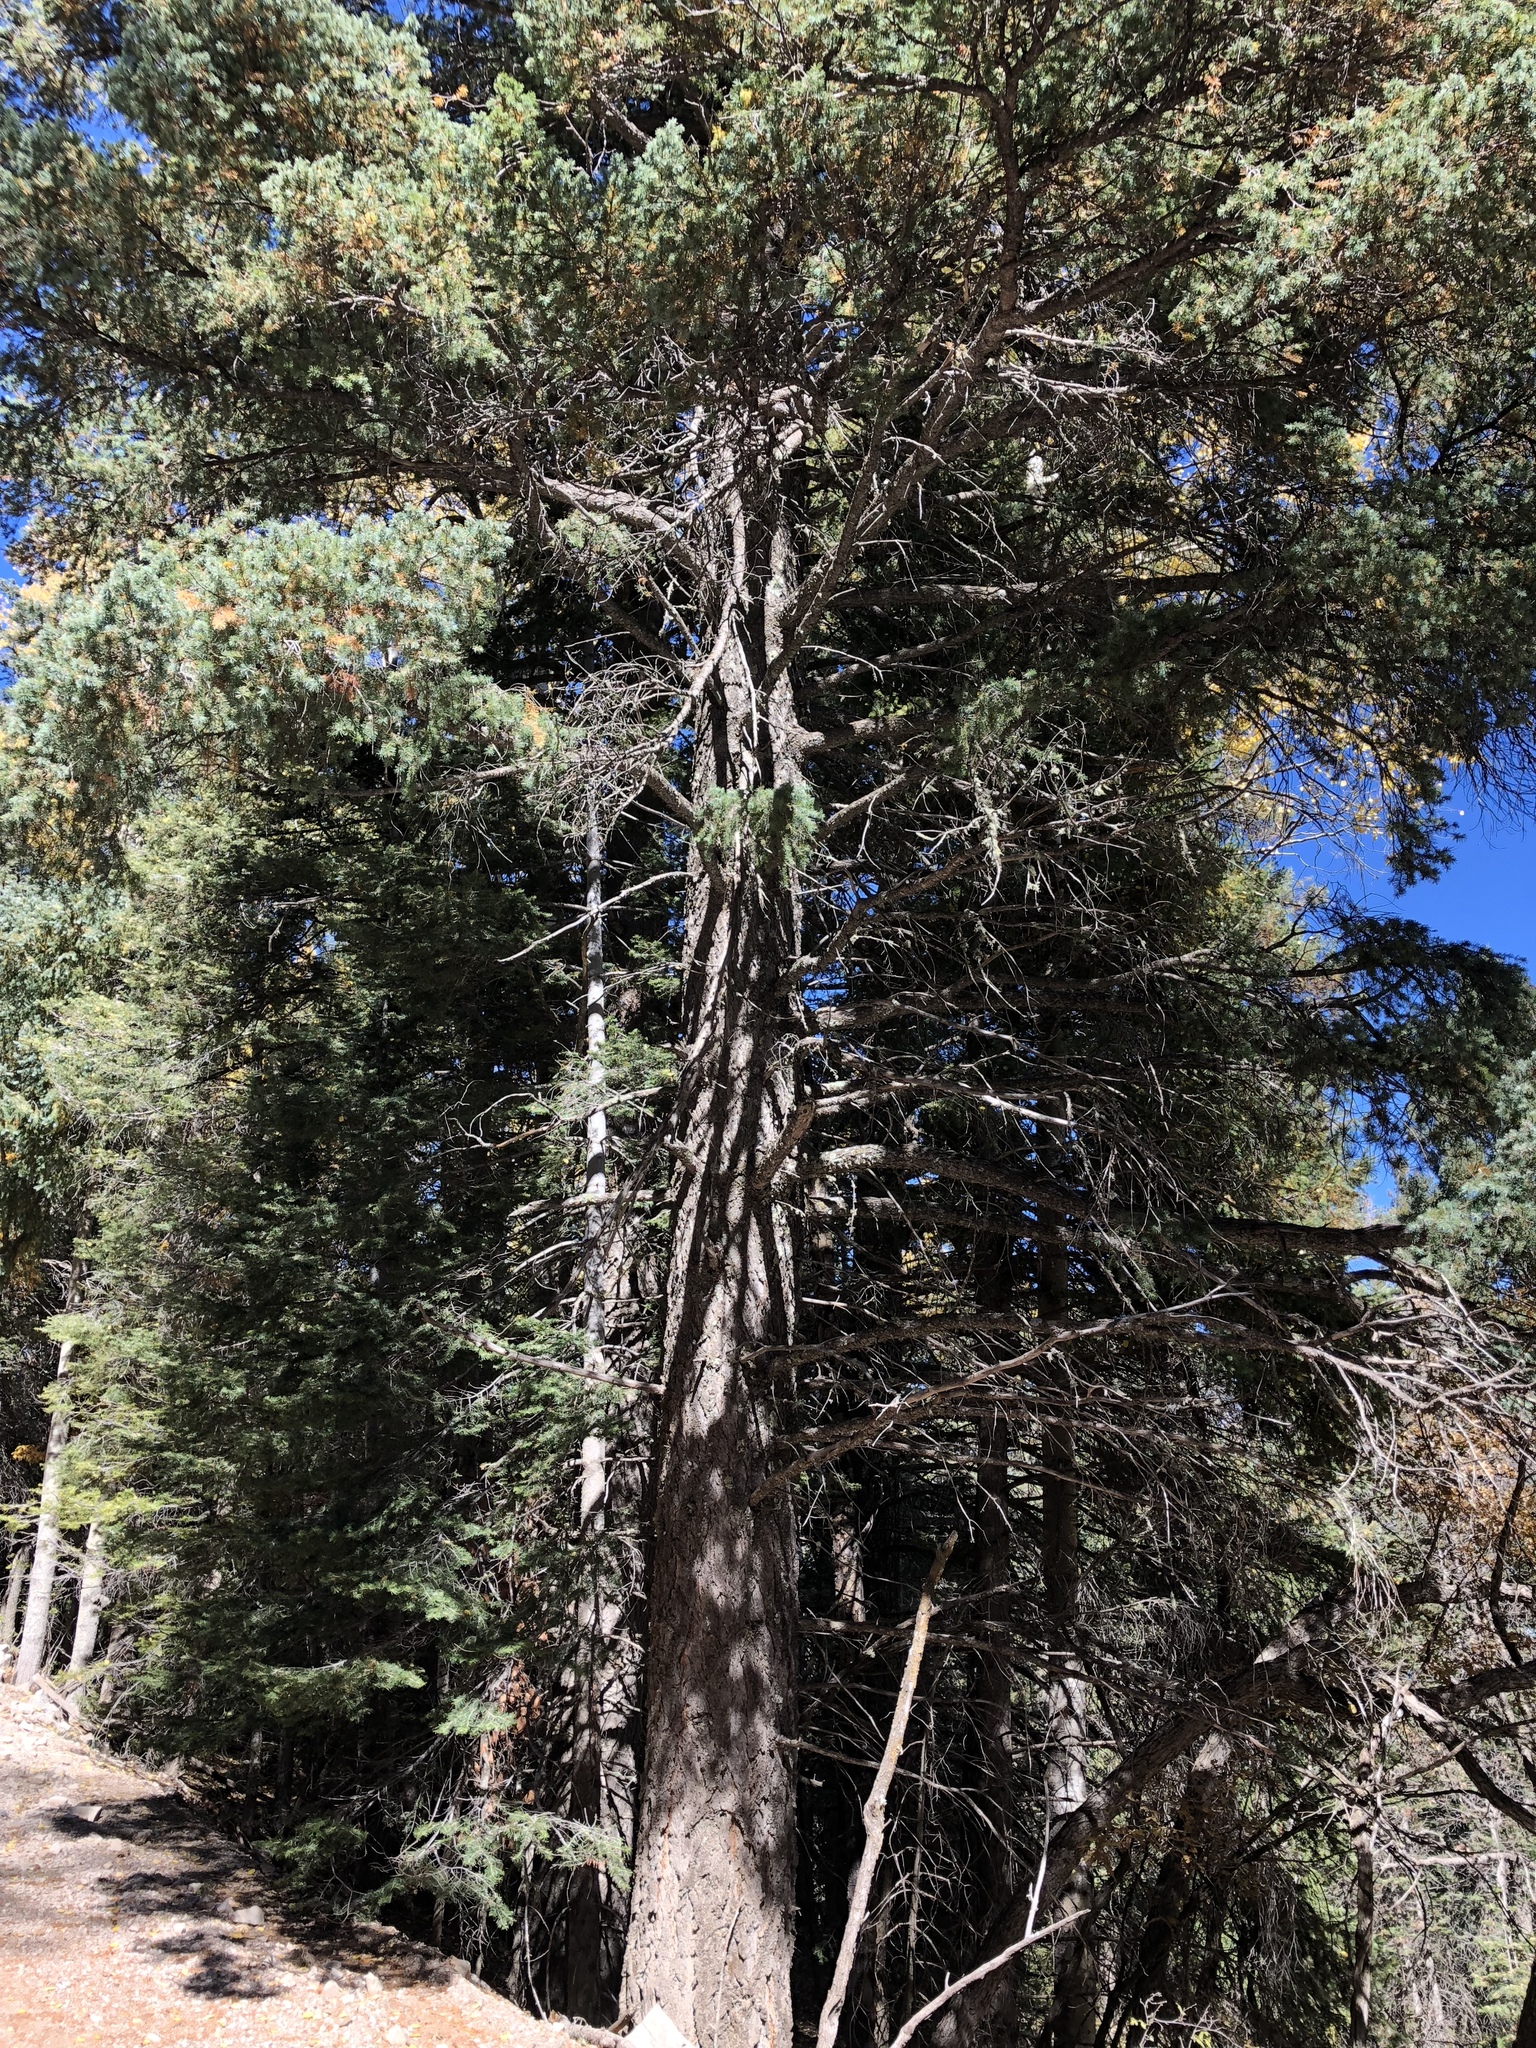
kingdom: Plantae
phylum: Tracheophyta
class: Pinopsida
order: Pinales
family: Pinaceae
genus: Pseudotsuga
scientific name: Pseudotsuga menziesii
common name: Douglas fir
